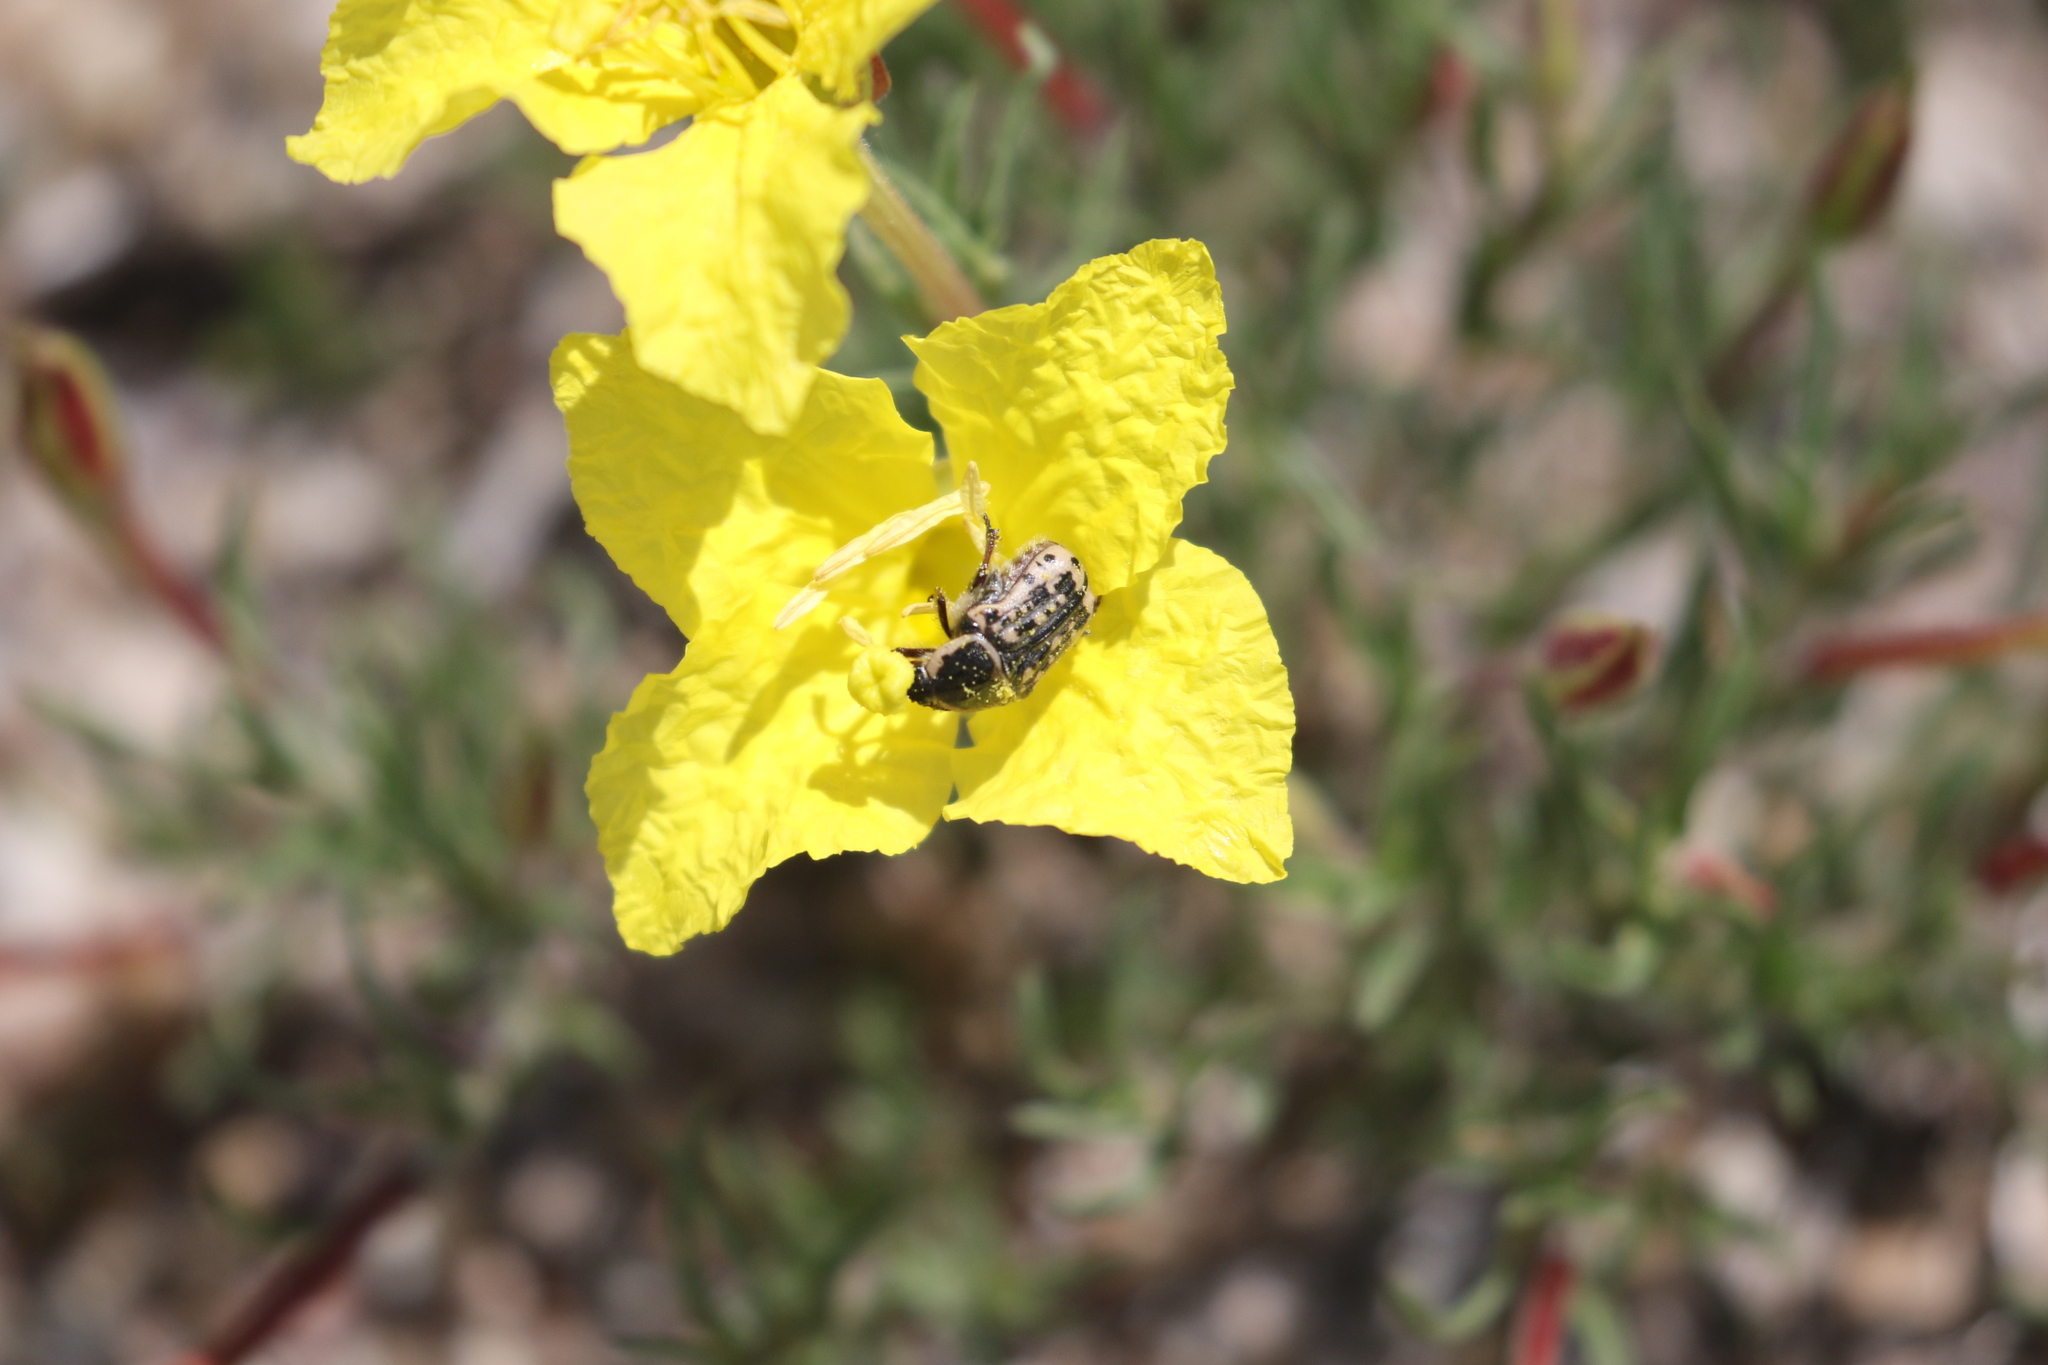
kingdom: Animalia
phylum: Arthropoda
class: Insecta
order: Coleoptera
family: Scarabaeidae
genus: Euphoria
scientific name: Euphoria kernii
